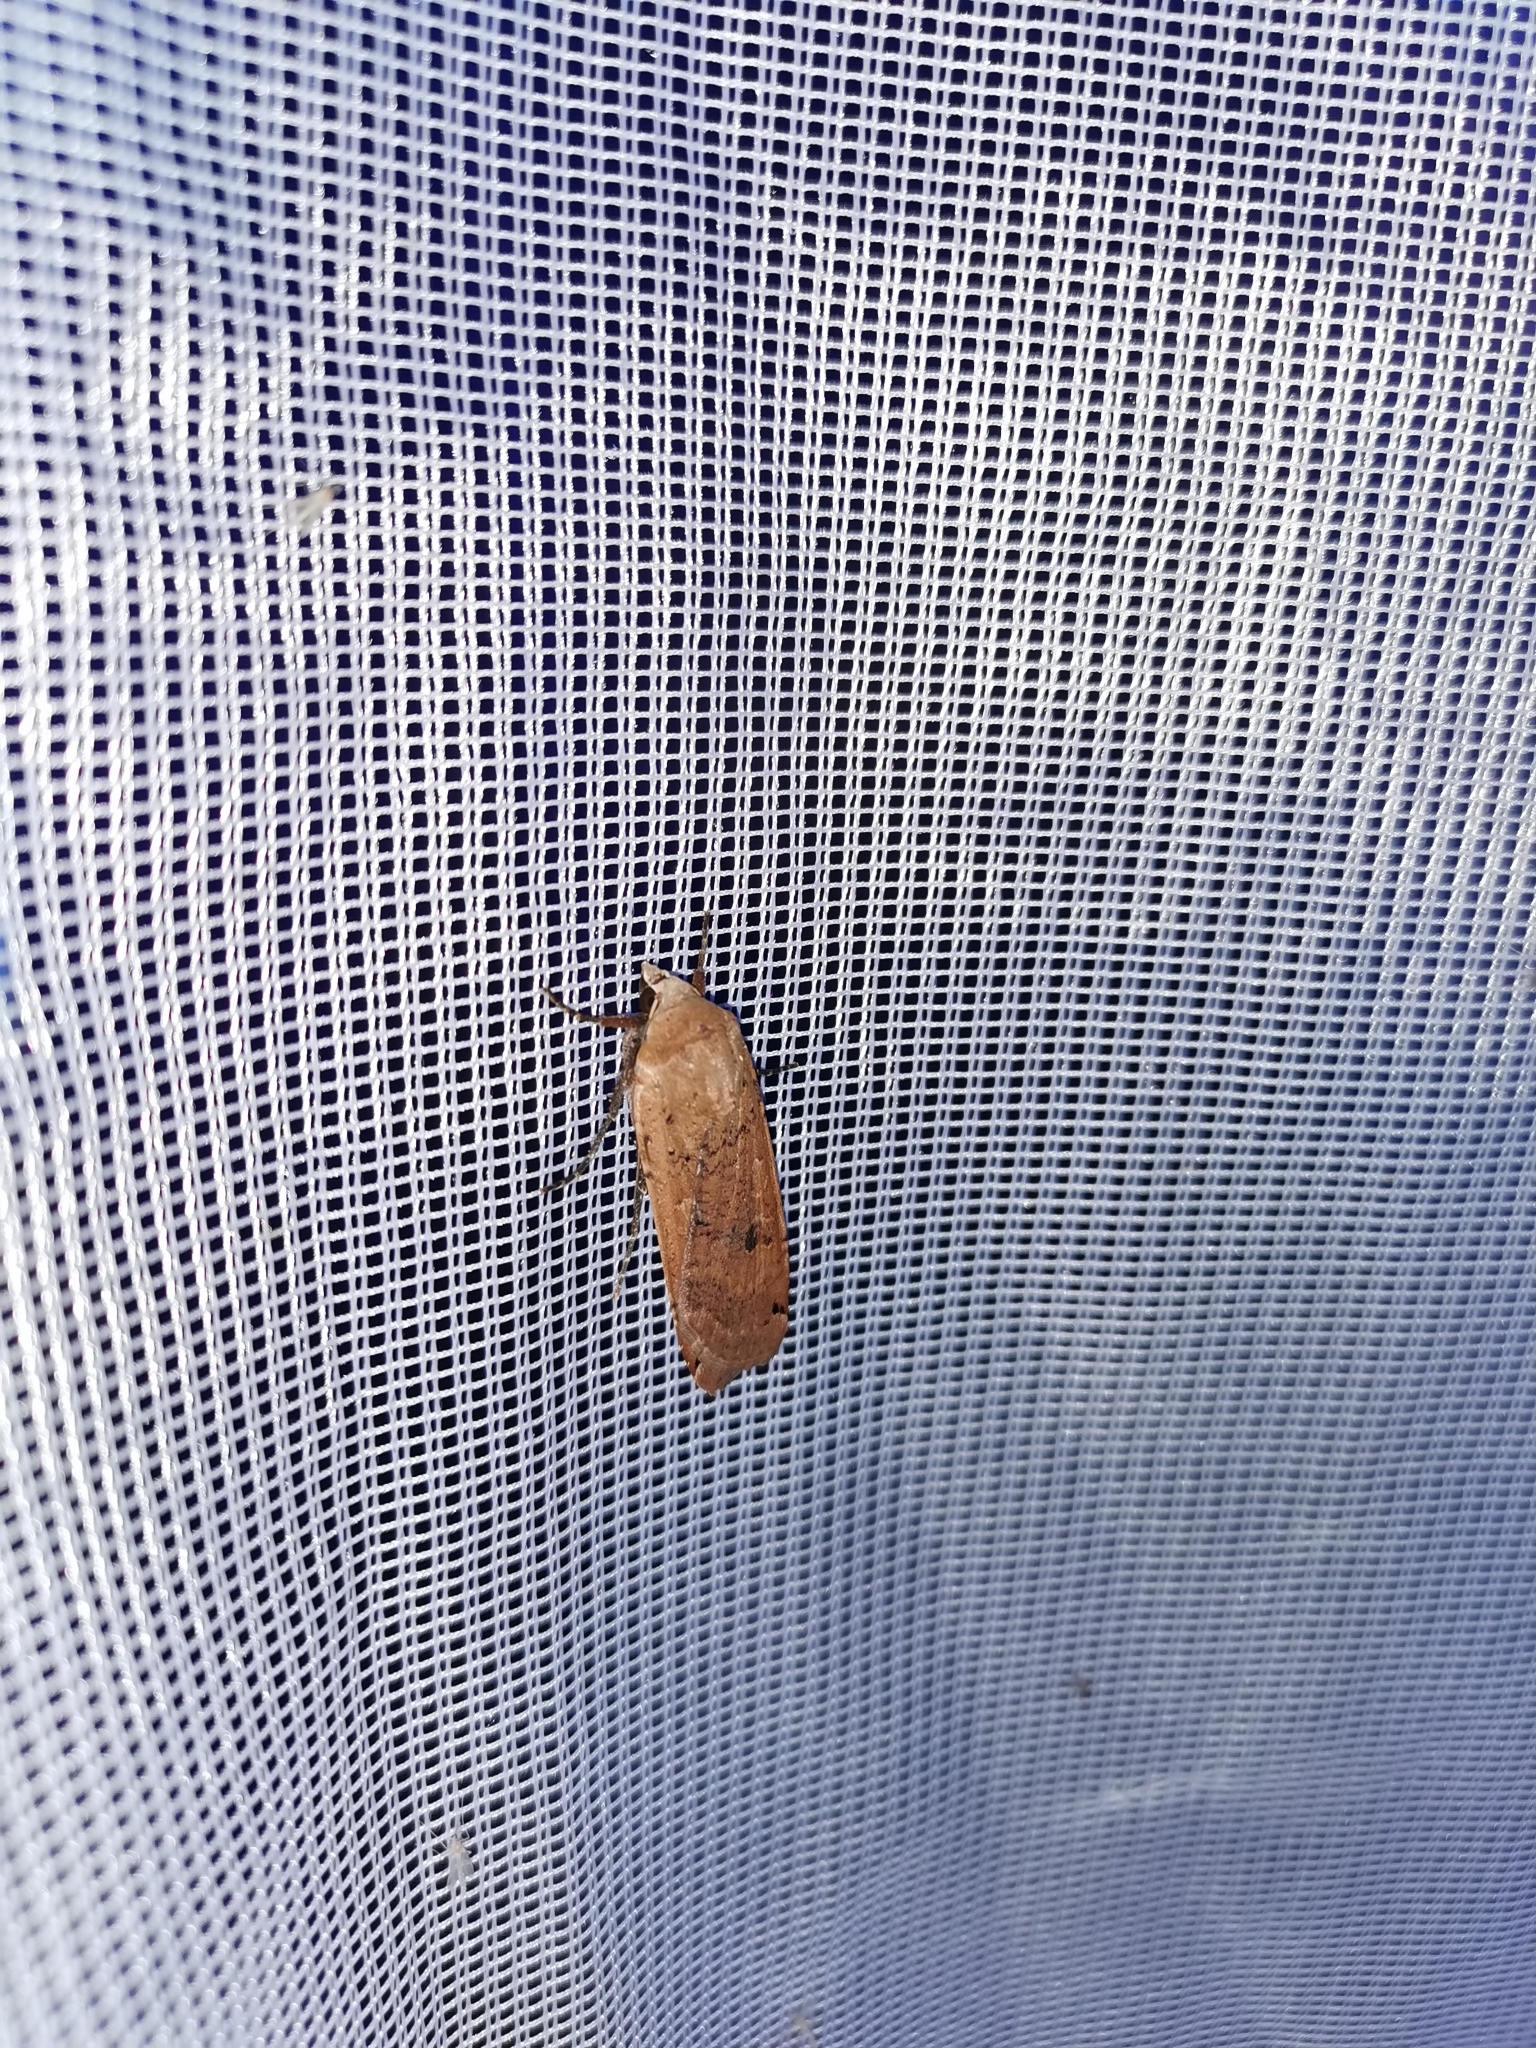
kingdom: Animalia
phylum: Arthropoda
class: Insecta
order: Lepidoptera
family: Noctuidae
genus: Noctua
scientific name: Noctua pronuba
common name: Large yellow underwing
